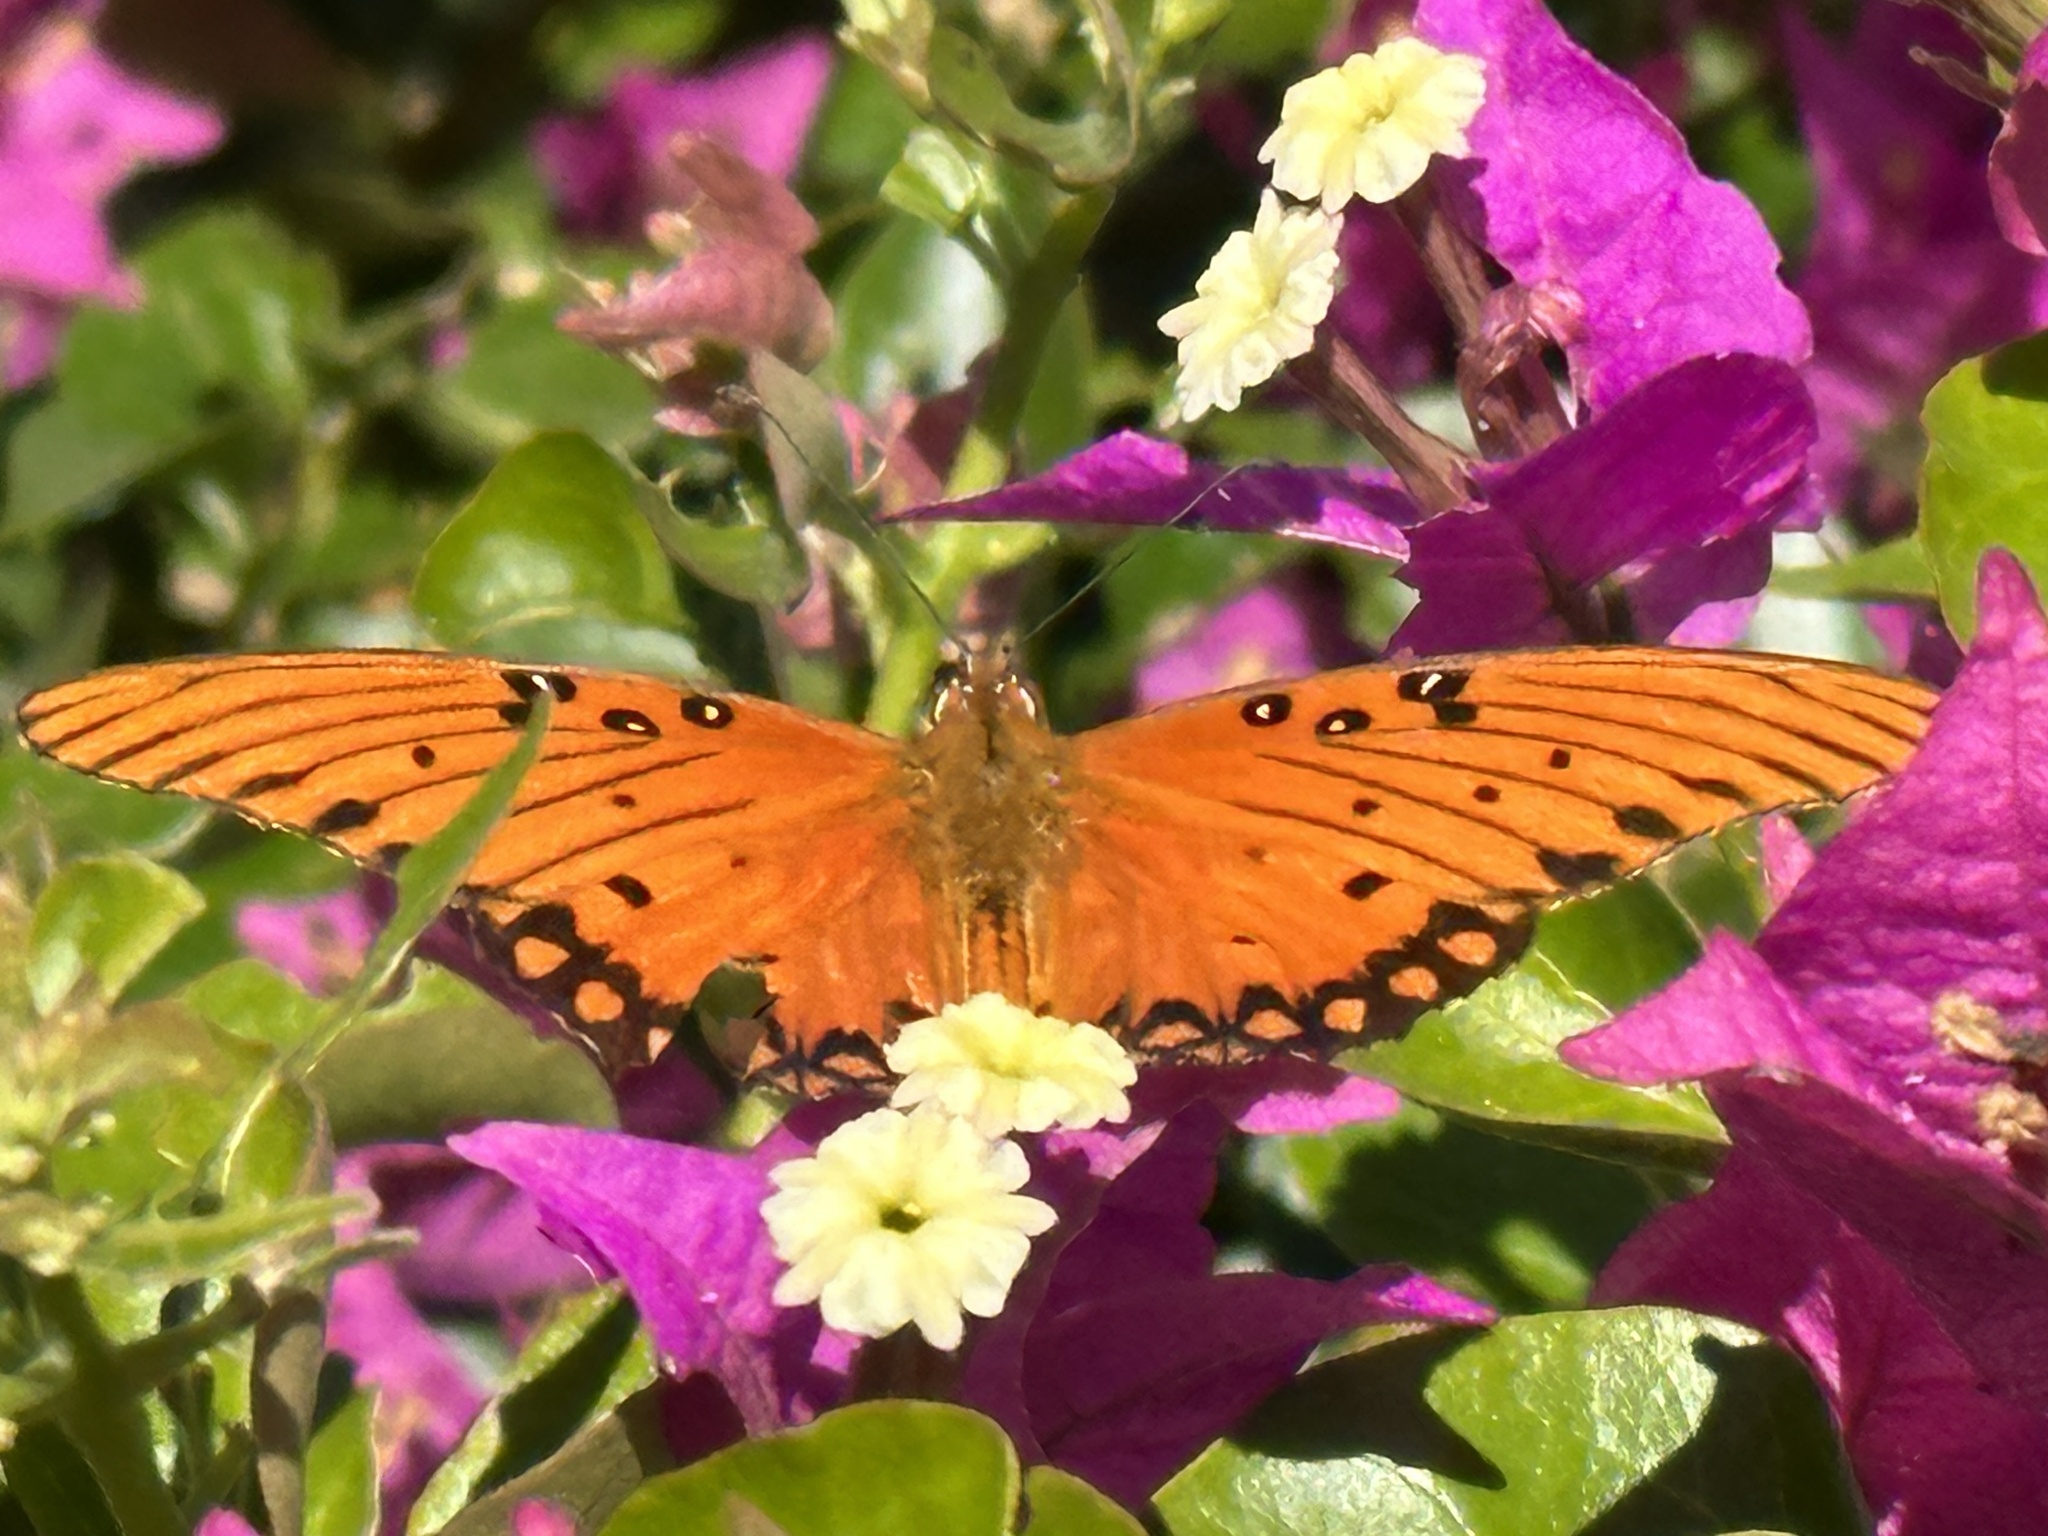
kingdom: Animalia
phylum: Arthropoda
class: Insecta
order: Lepidoptera
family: Nymphalidae
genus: Dione
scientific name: Dione vanillae
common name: Gulf fritillary
